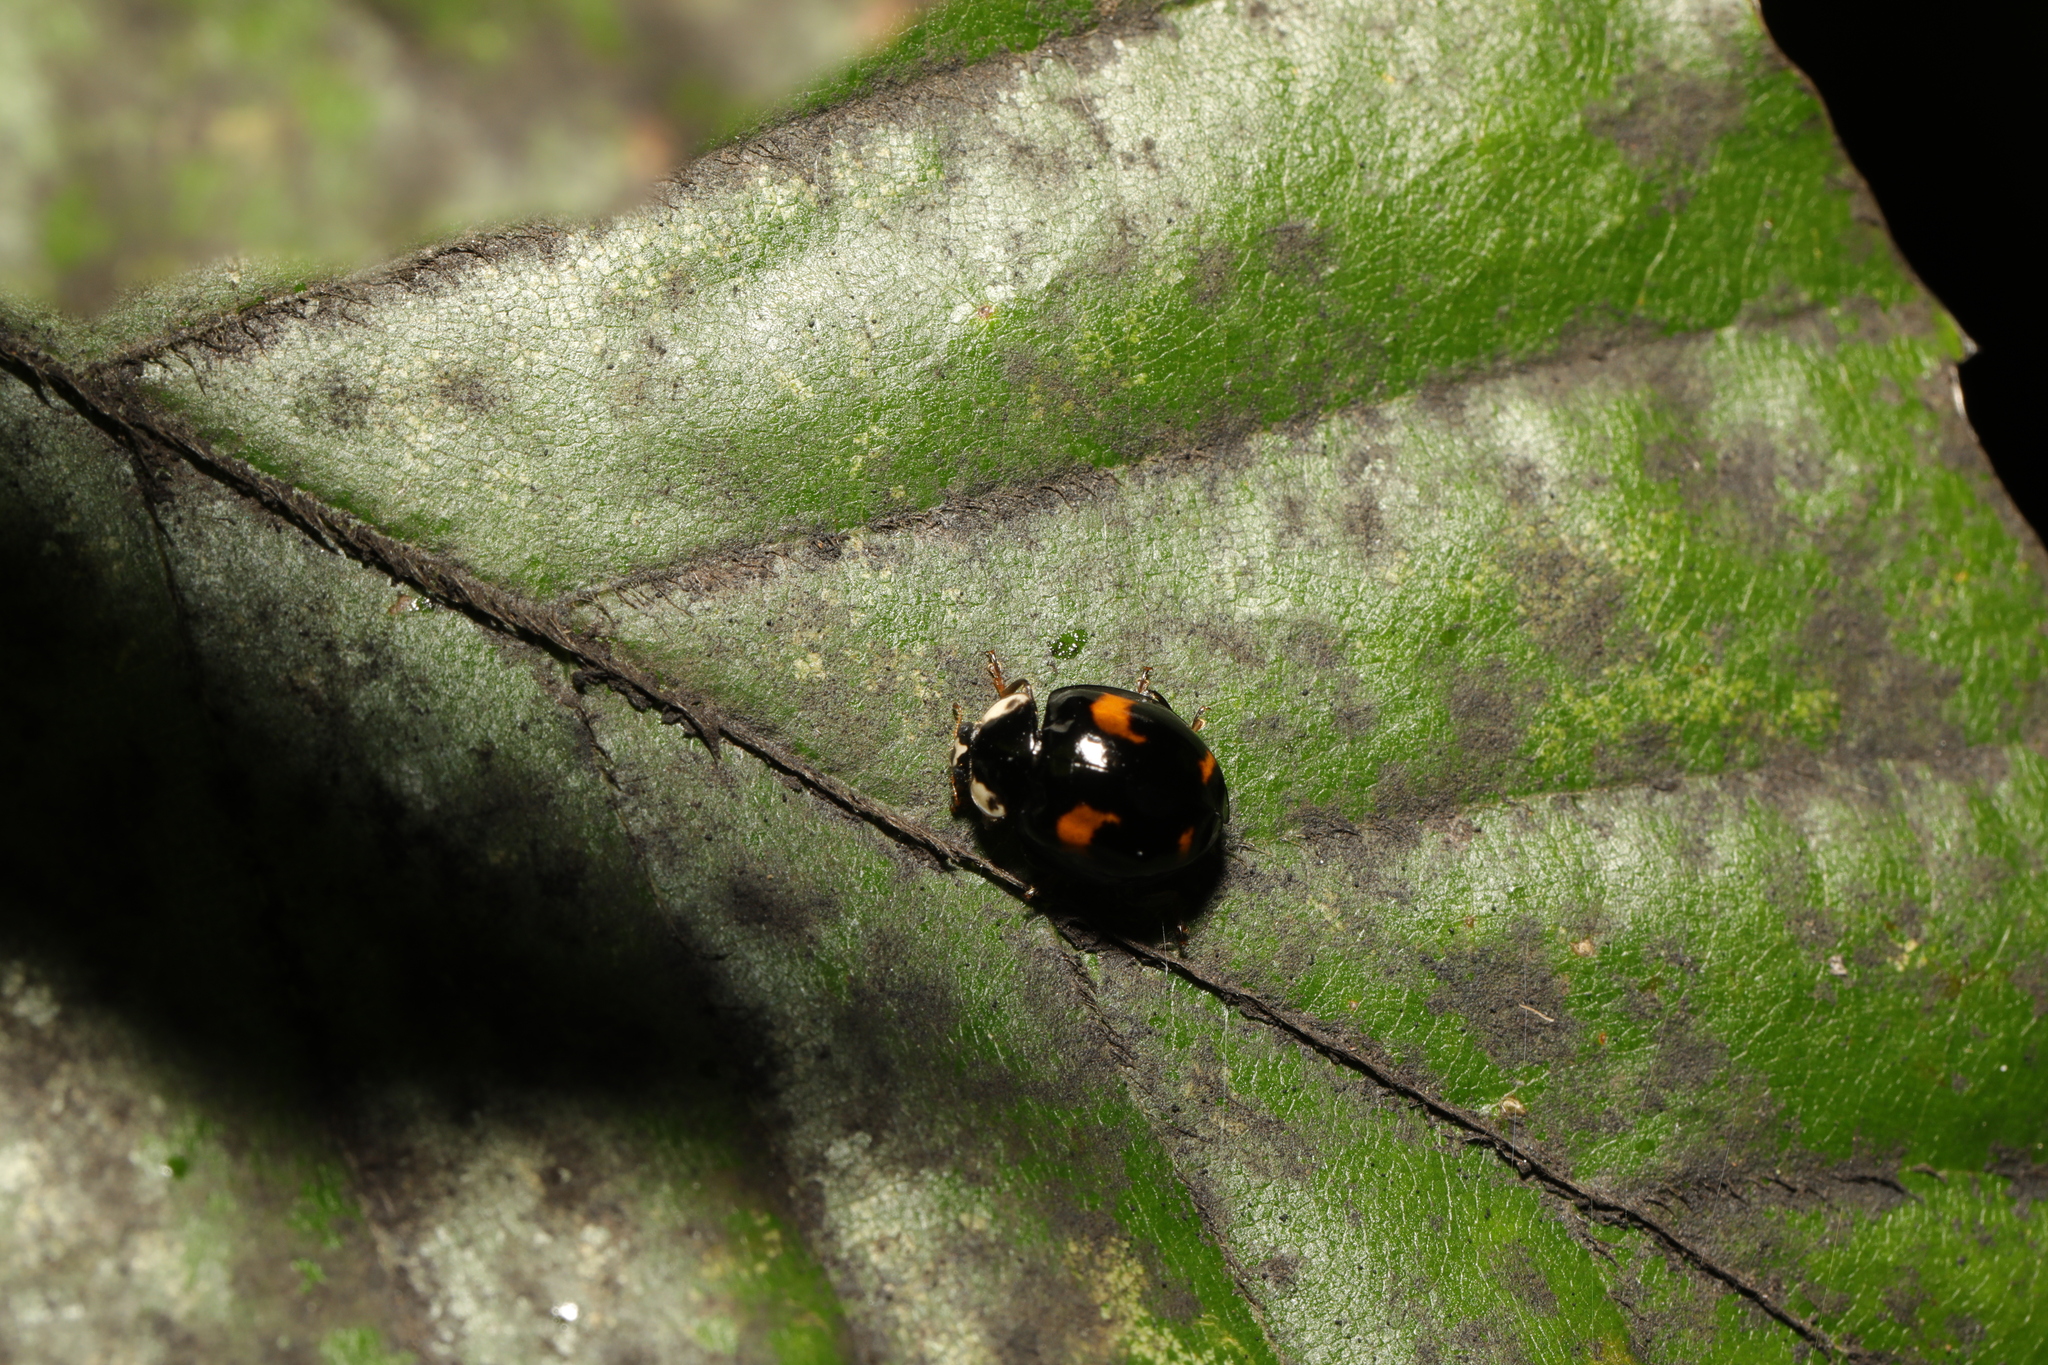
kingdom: Animalia
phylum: Arthropoda
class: Insecta
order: Coleoptera
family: Coccinellidae
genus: Harmonia
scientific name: Harmonia axyridis
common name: Harlequin ladybird
